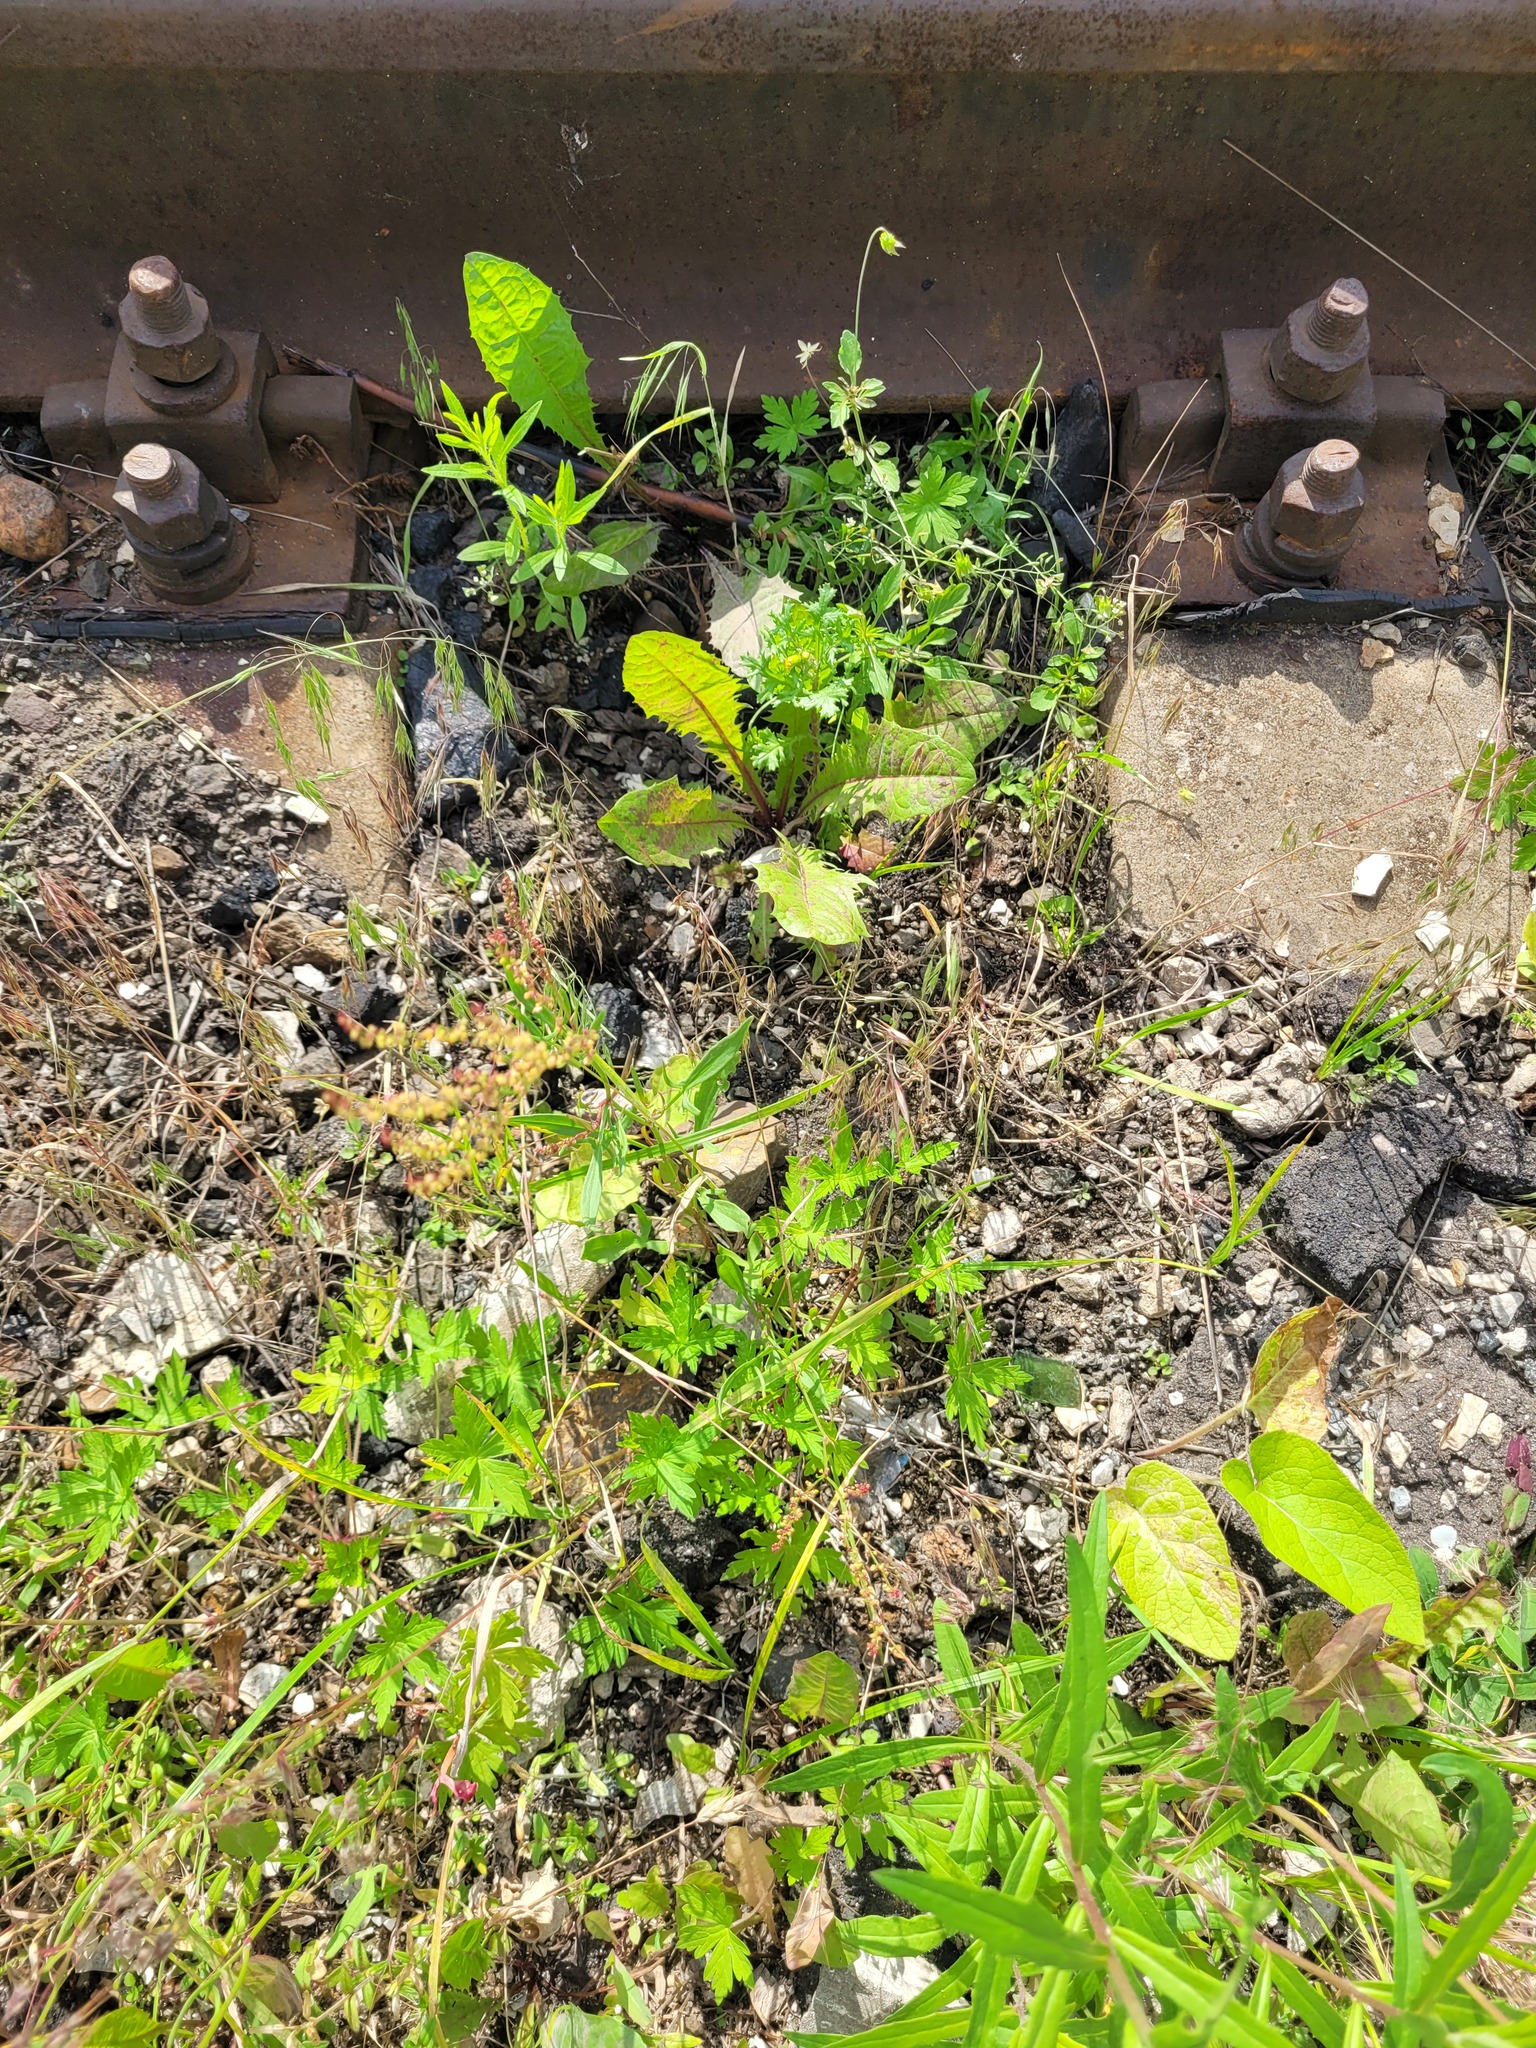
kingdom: Plantae
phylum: Tracheophyta
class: Magnoliopsida
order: Caryophyllales
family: Polygonaceae
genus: Rumex
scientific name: Rumex acetosella
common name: Common sheep sorrel
